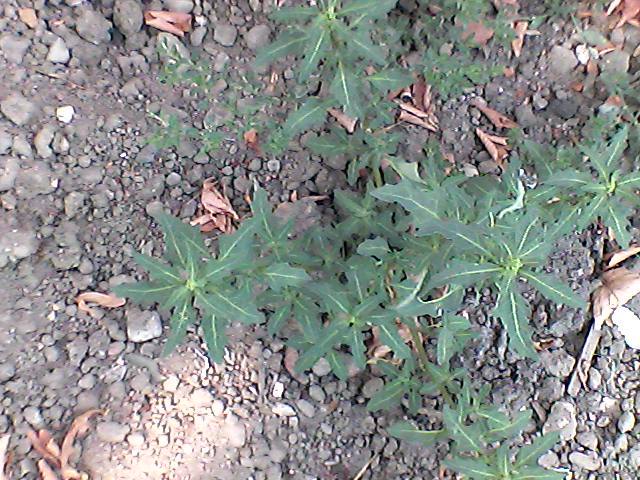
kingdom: Plantae
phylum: Tracheophyta
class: Magnoliopsida
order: Caryophyllales
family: Amaranthaceae
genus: Oxybasis
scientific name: Oxybasis glauca
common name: Glaucous goosefoot
